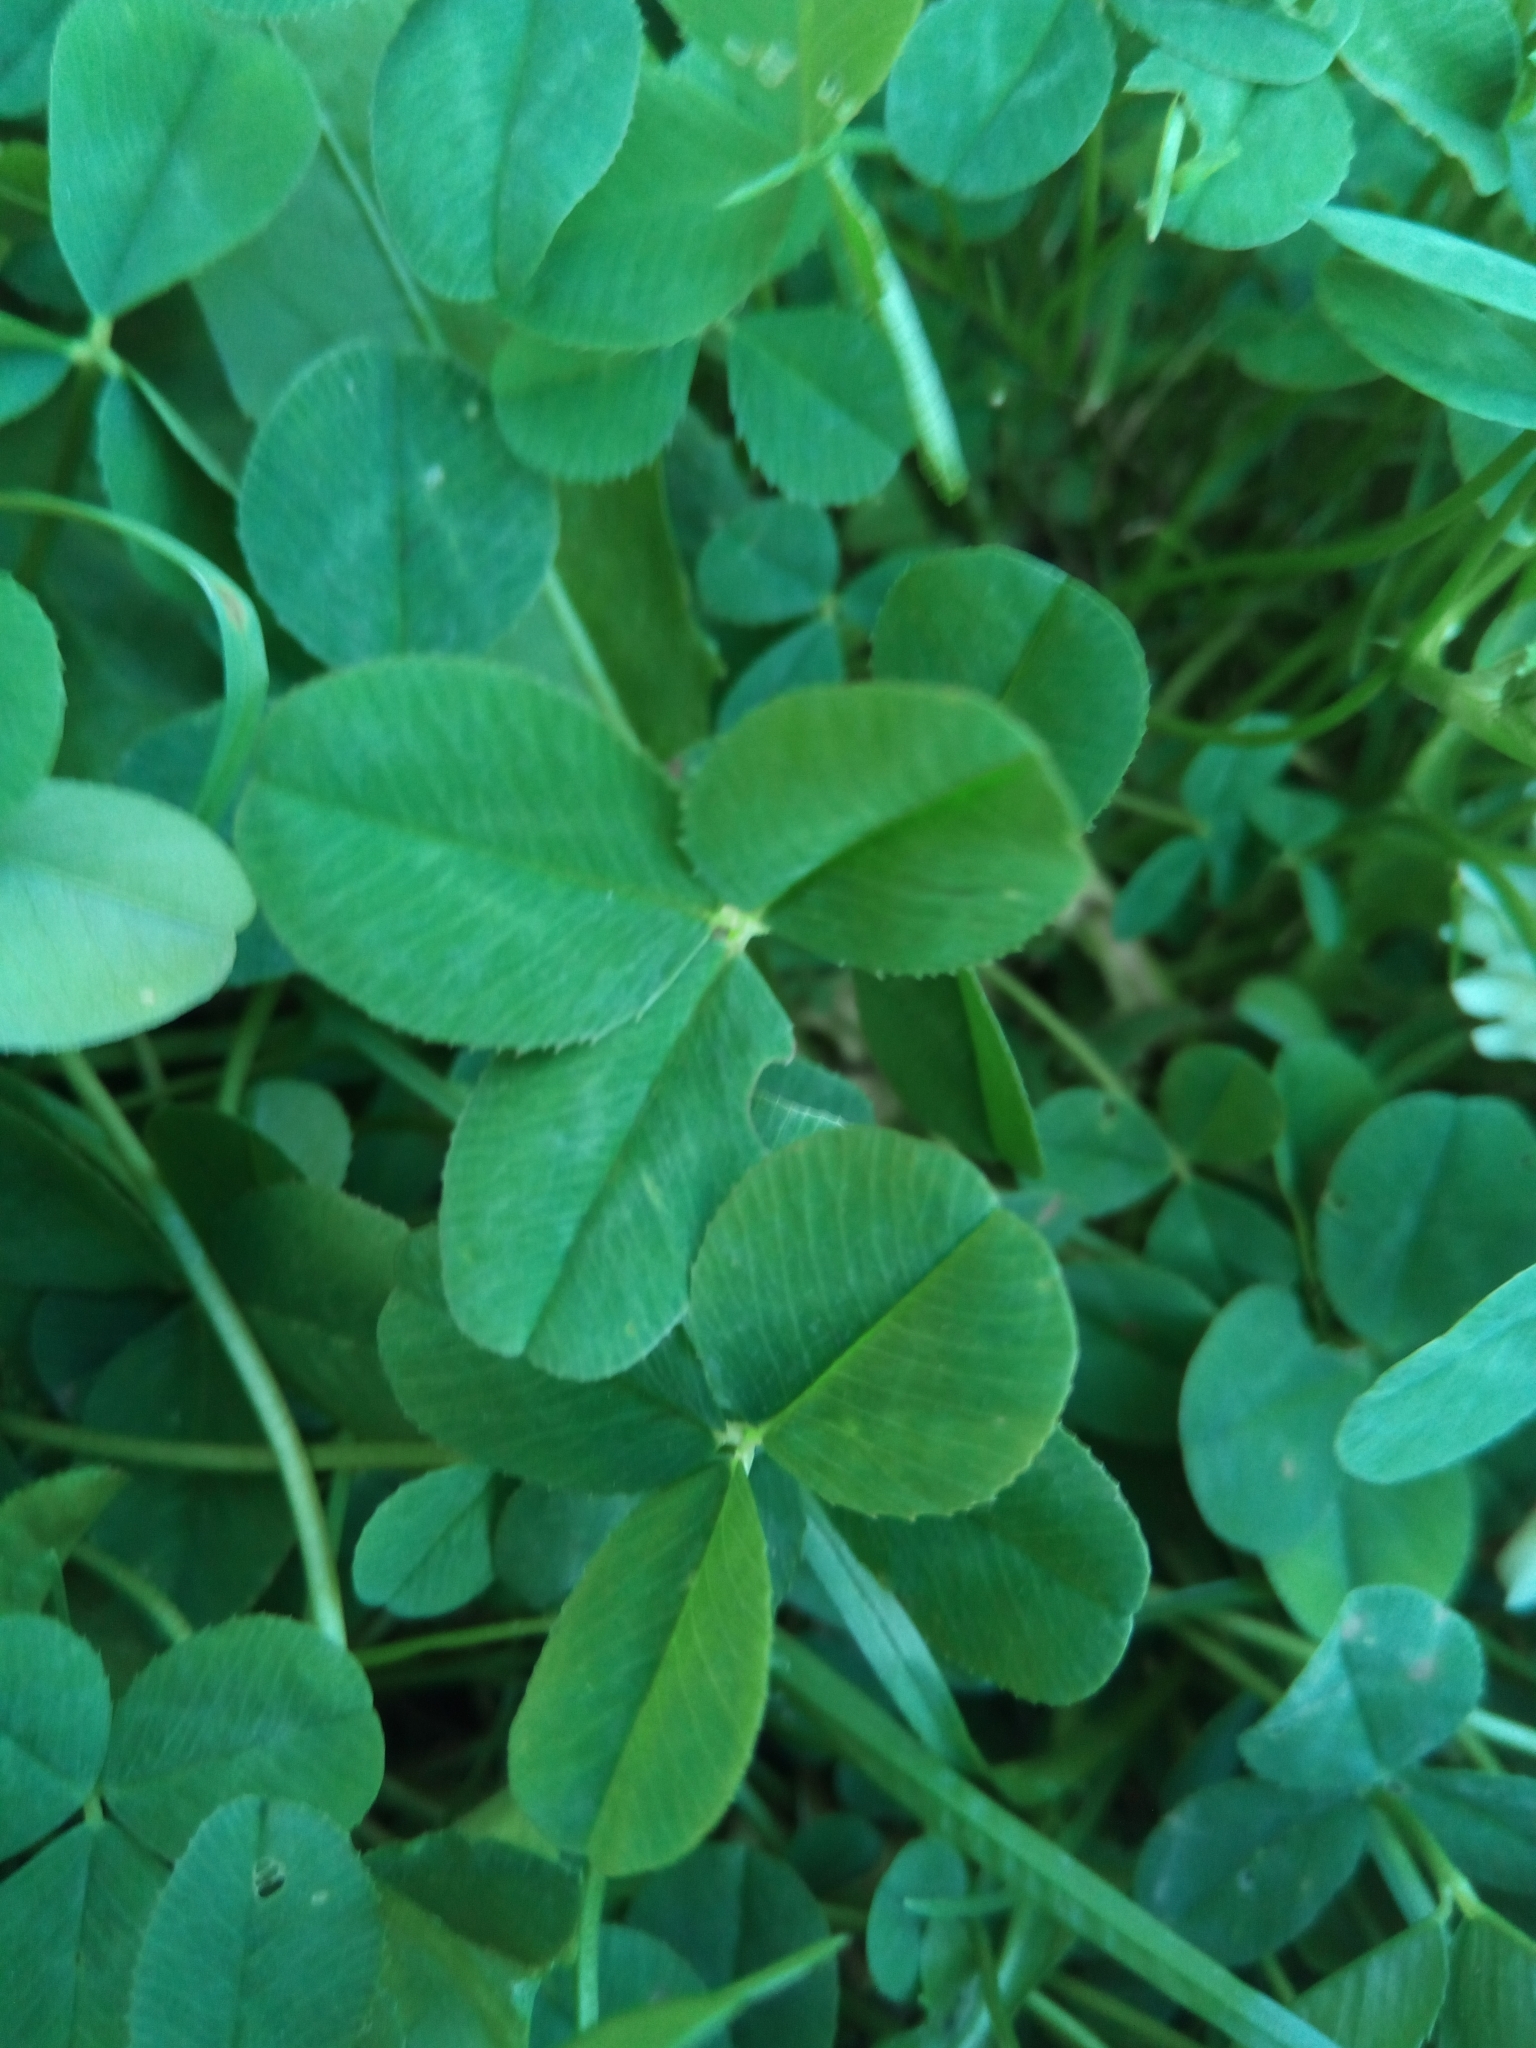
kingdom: Plantae
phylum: Tracheophyta
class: Magnoliopsida
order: Fabales
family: Fabaceae
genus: Trifolium
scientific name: Trifolium repens
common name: White clover
